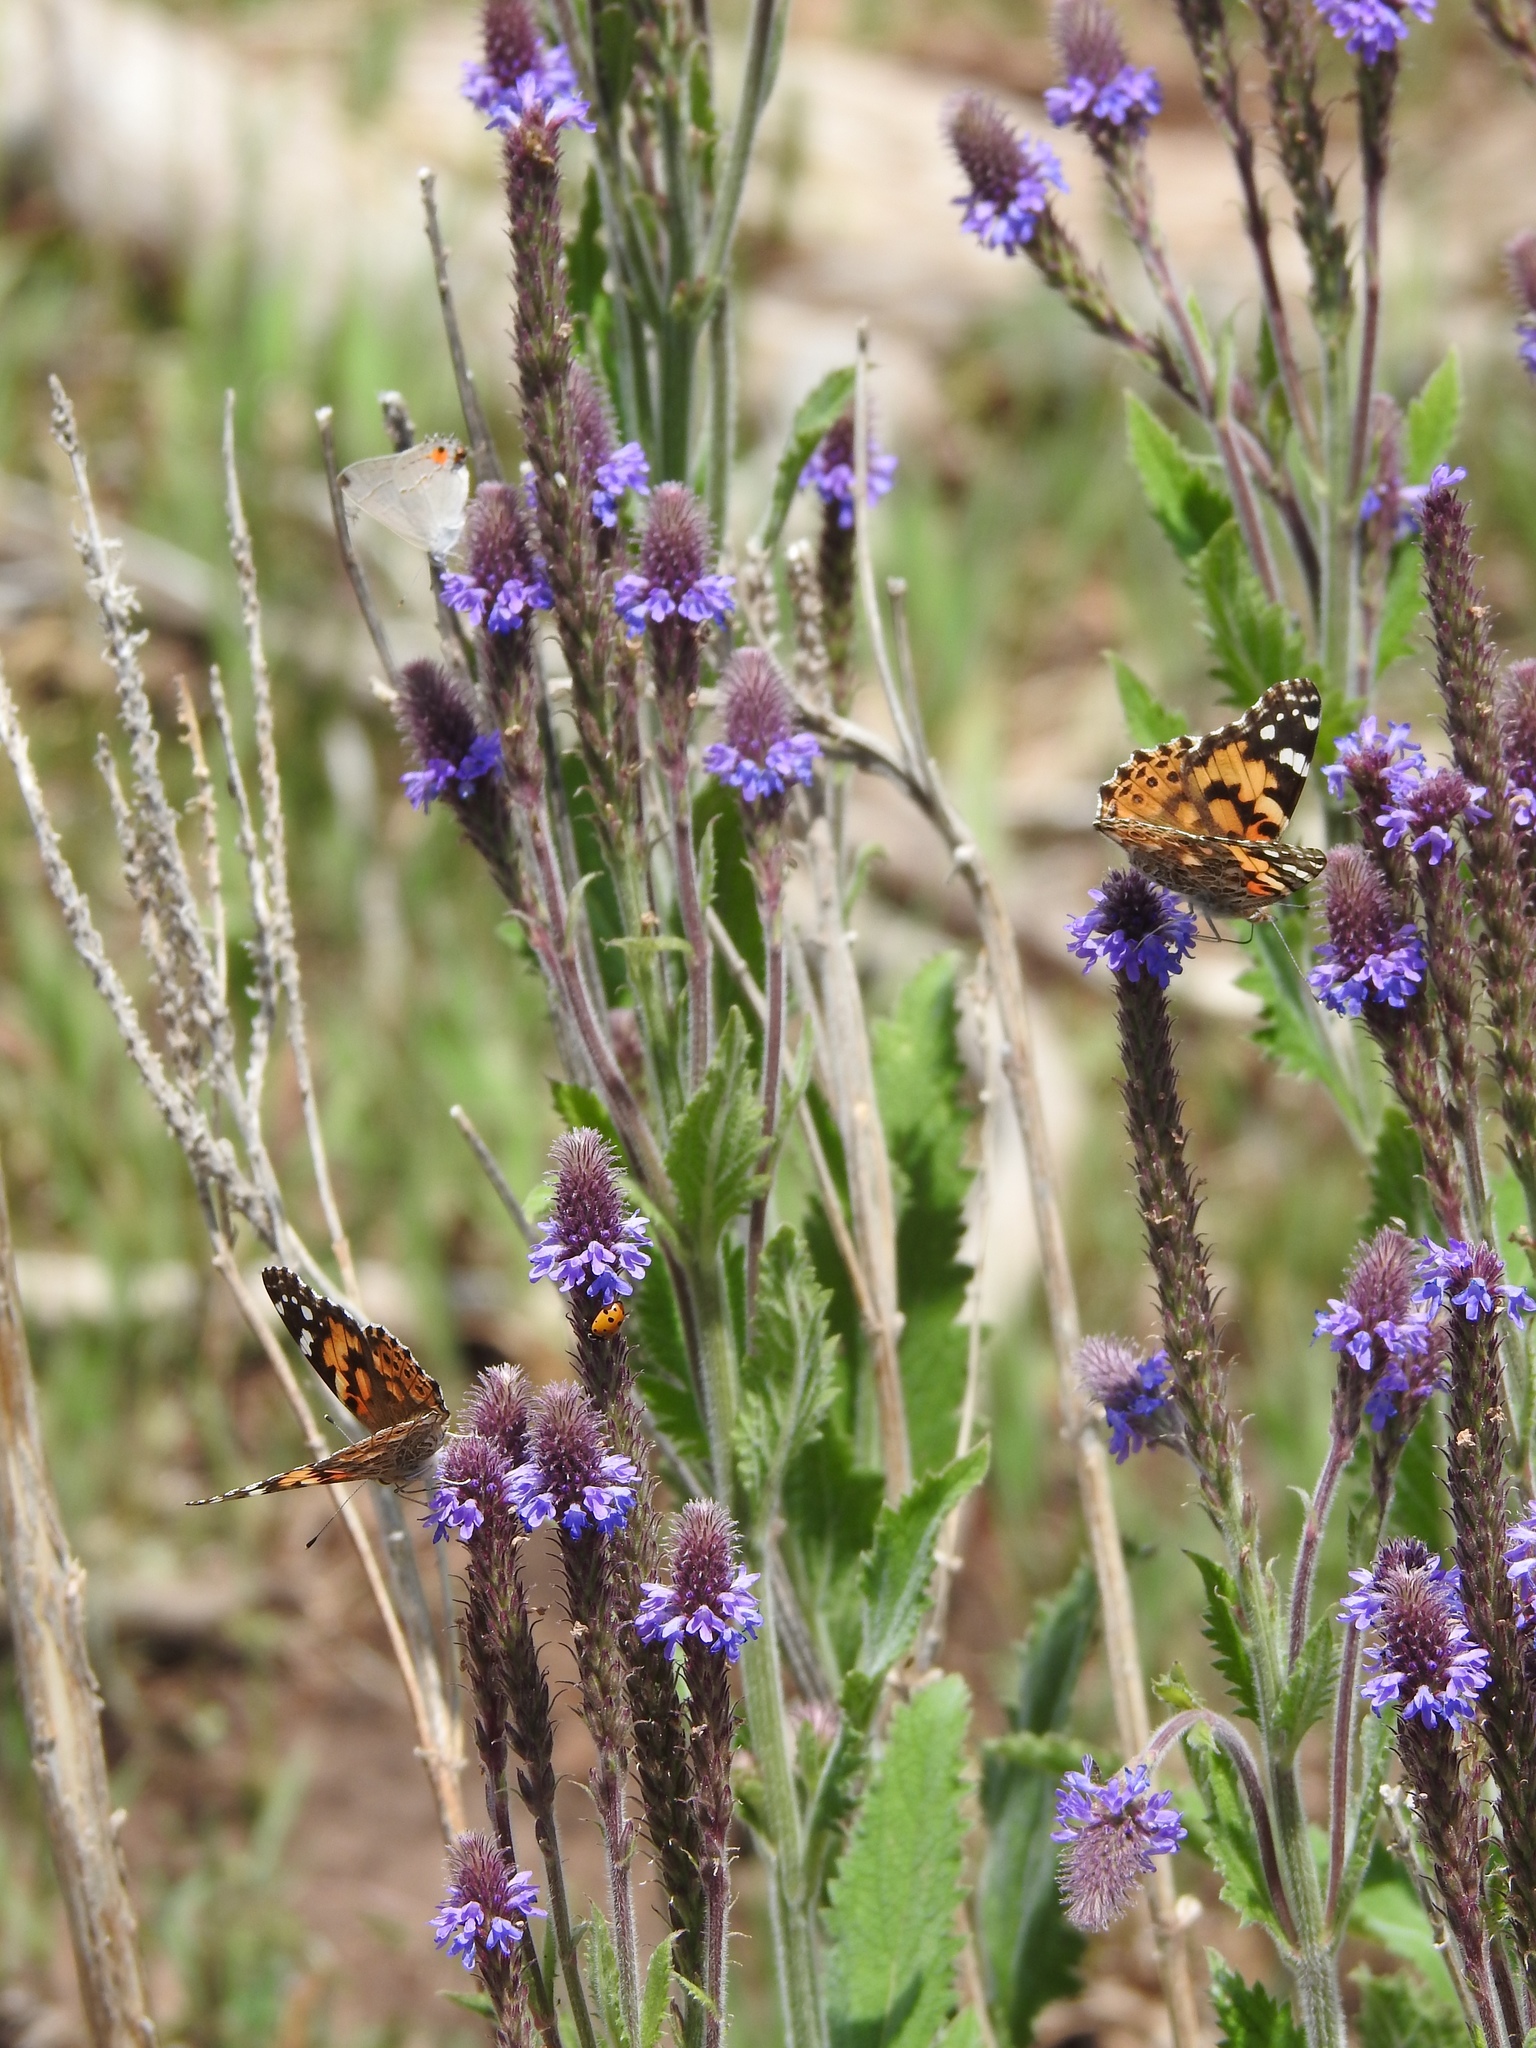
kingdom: Animalia
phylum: Arthropoda
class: Insecta
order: Lepidoptera
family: Lycaenidae
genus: Strymon
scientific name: Strymon melinus
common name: Gray hairstreak
